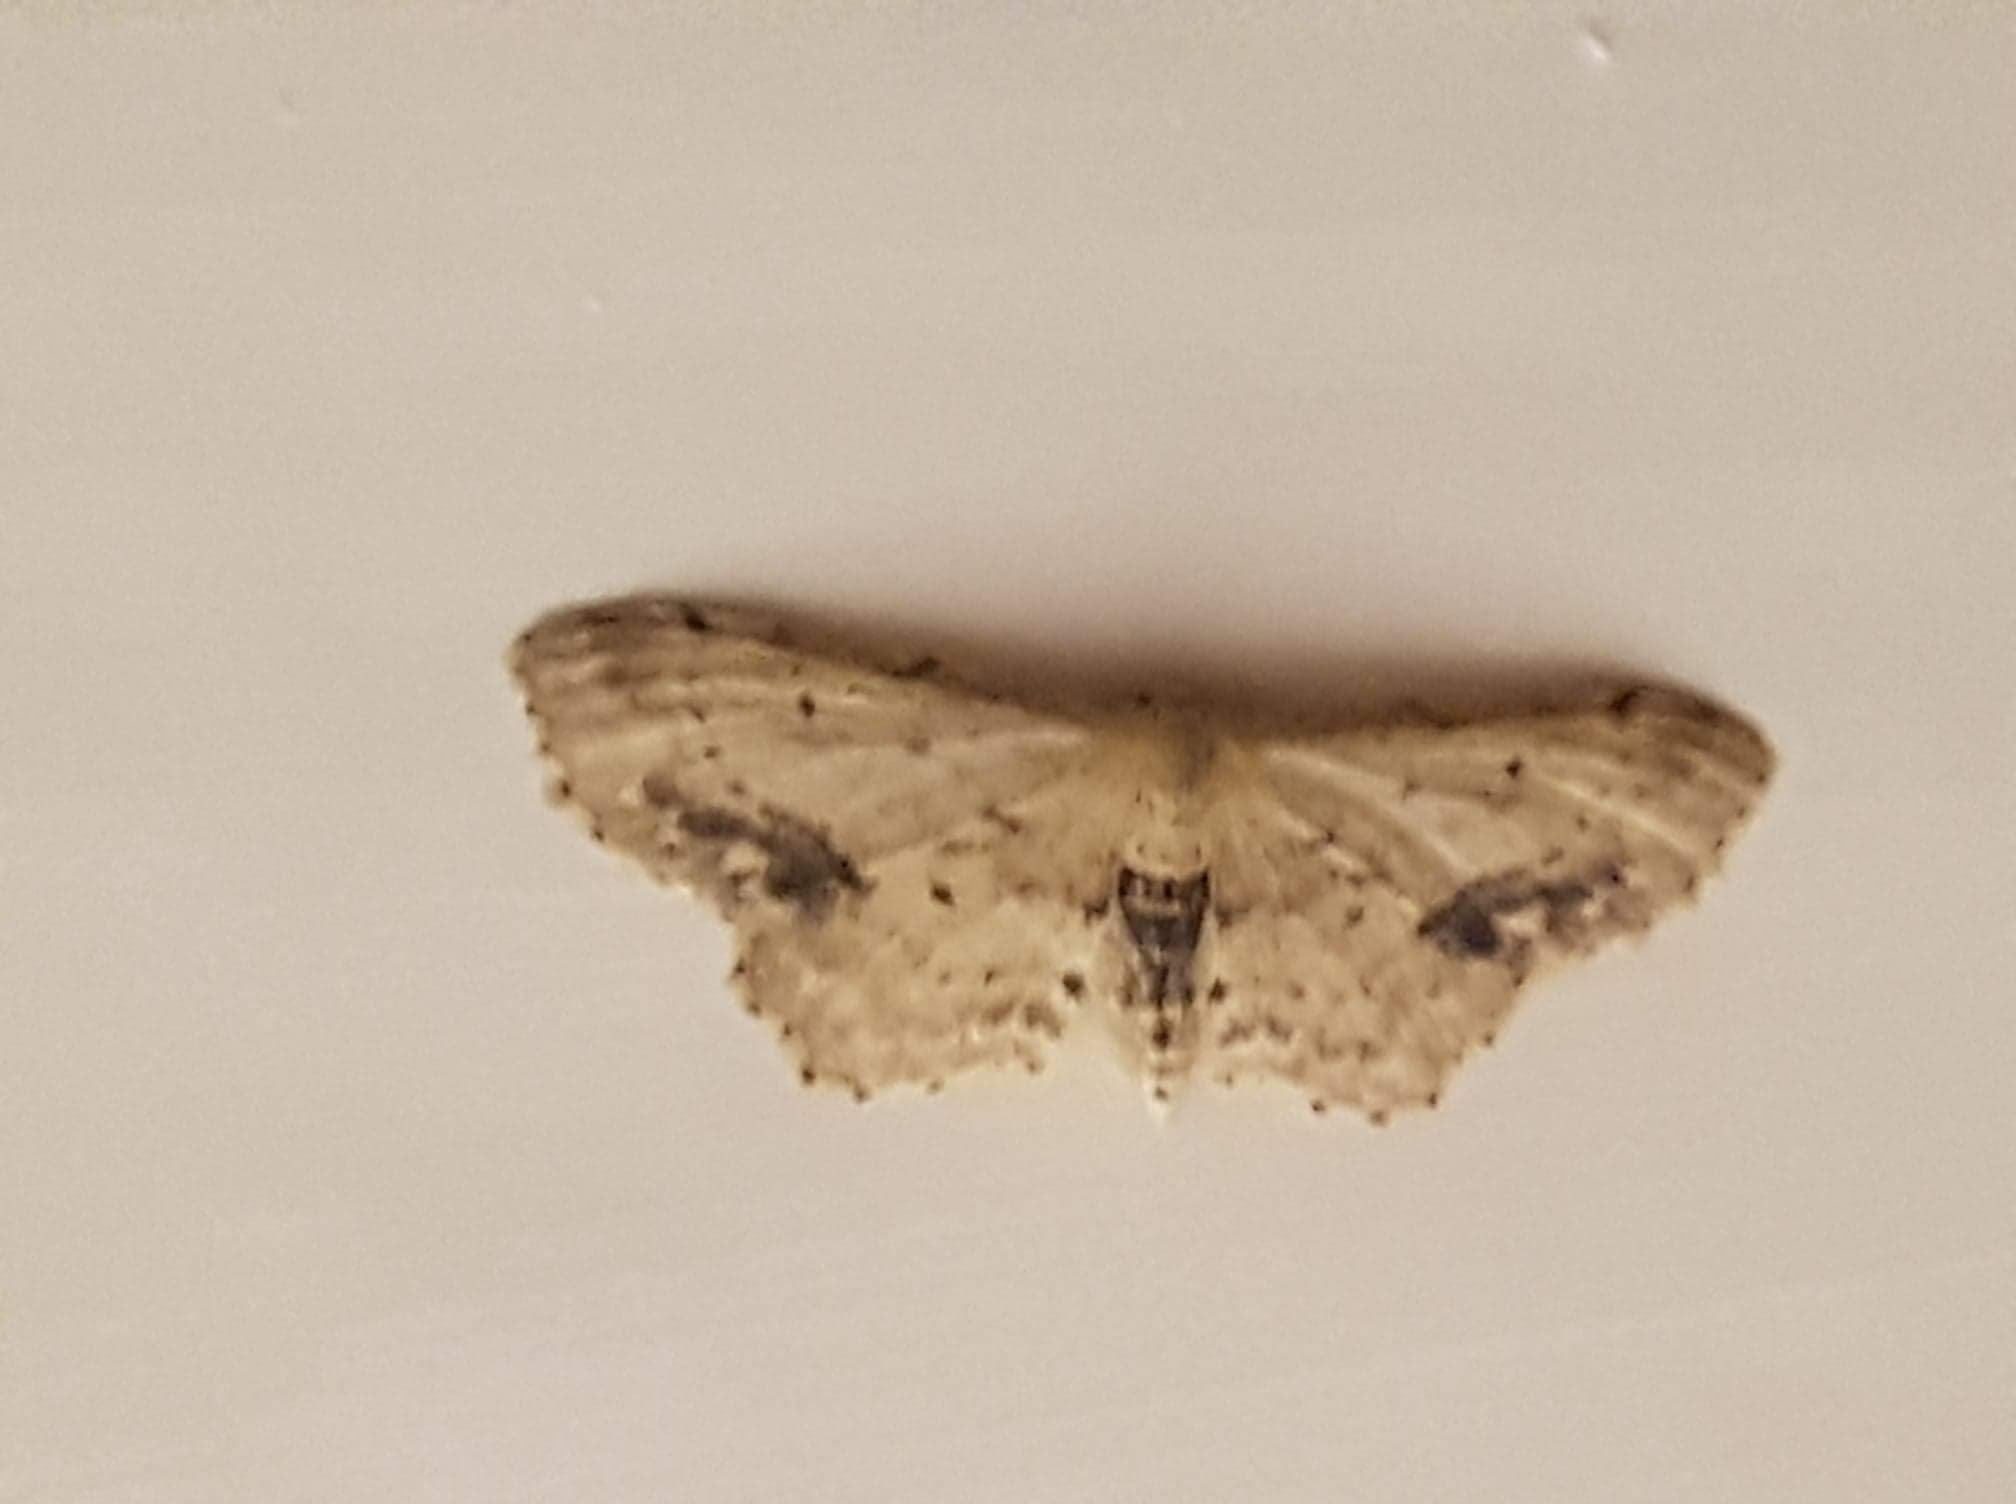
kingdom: Animalia
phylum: Arthropoda
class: Insecta
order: Lepidoptera
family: Geometridae
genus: Idaea
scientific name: Idaea dimidiata
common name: Single-dotted wave
